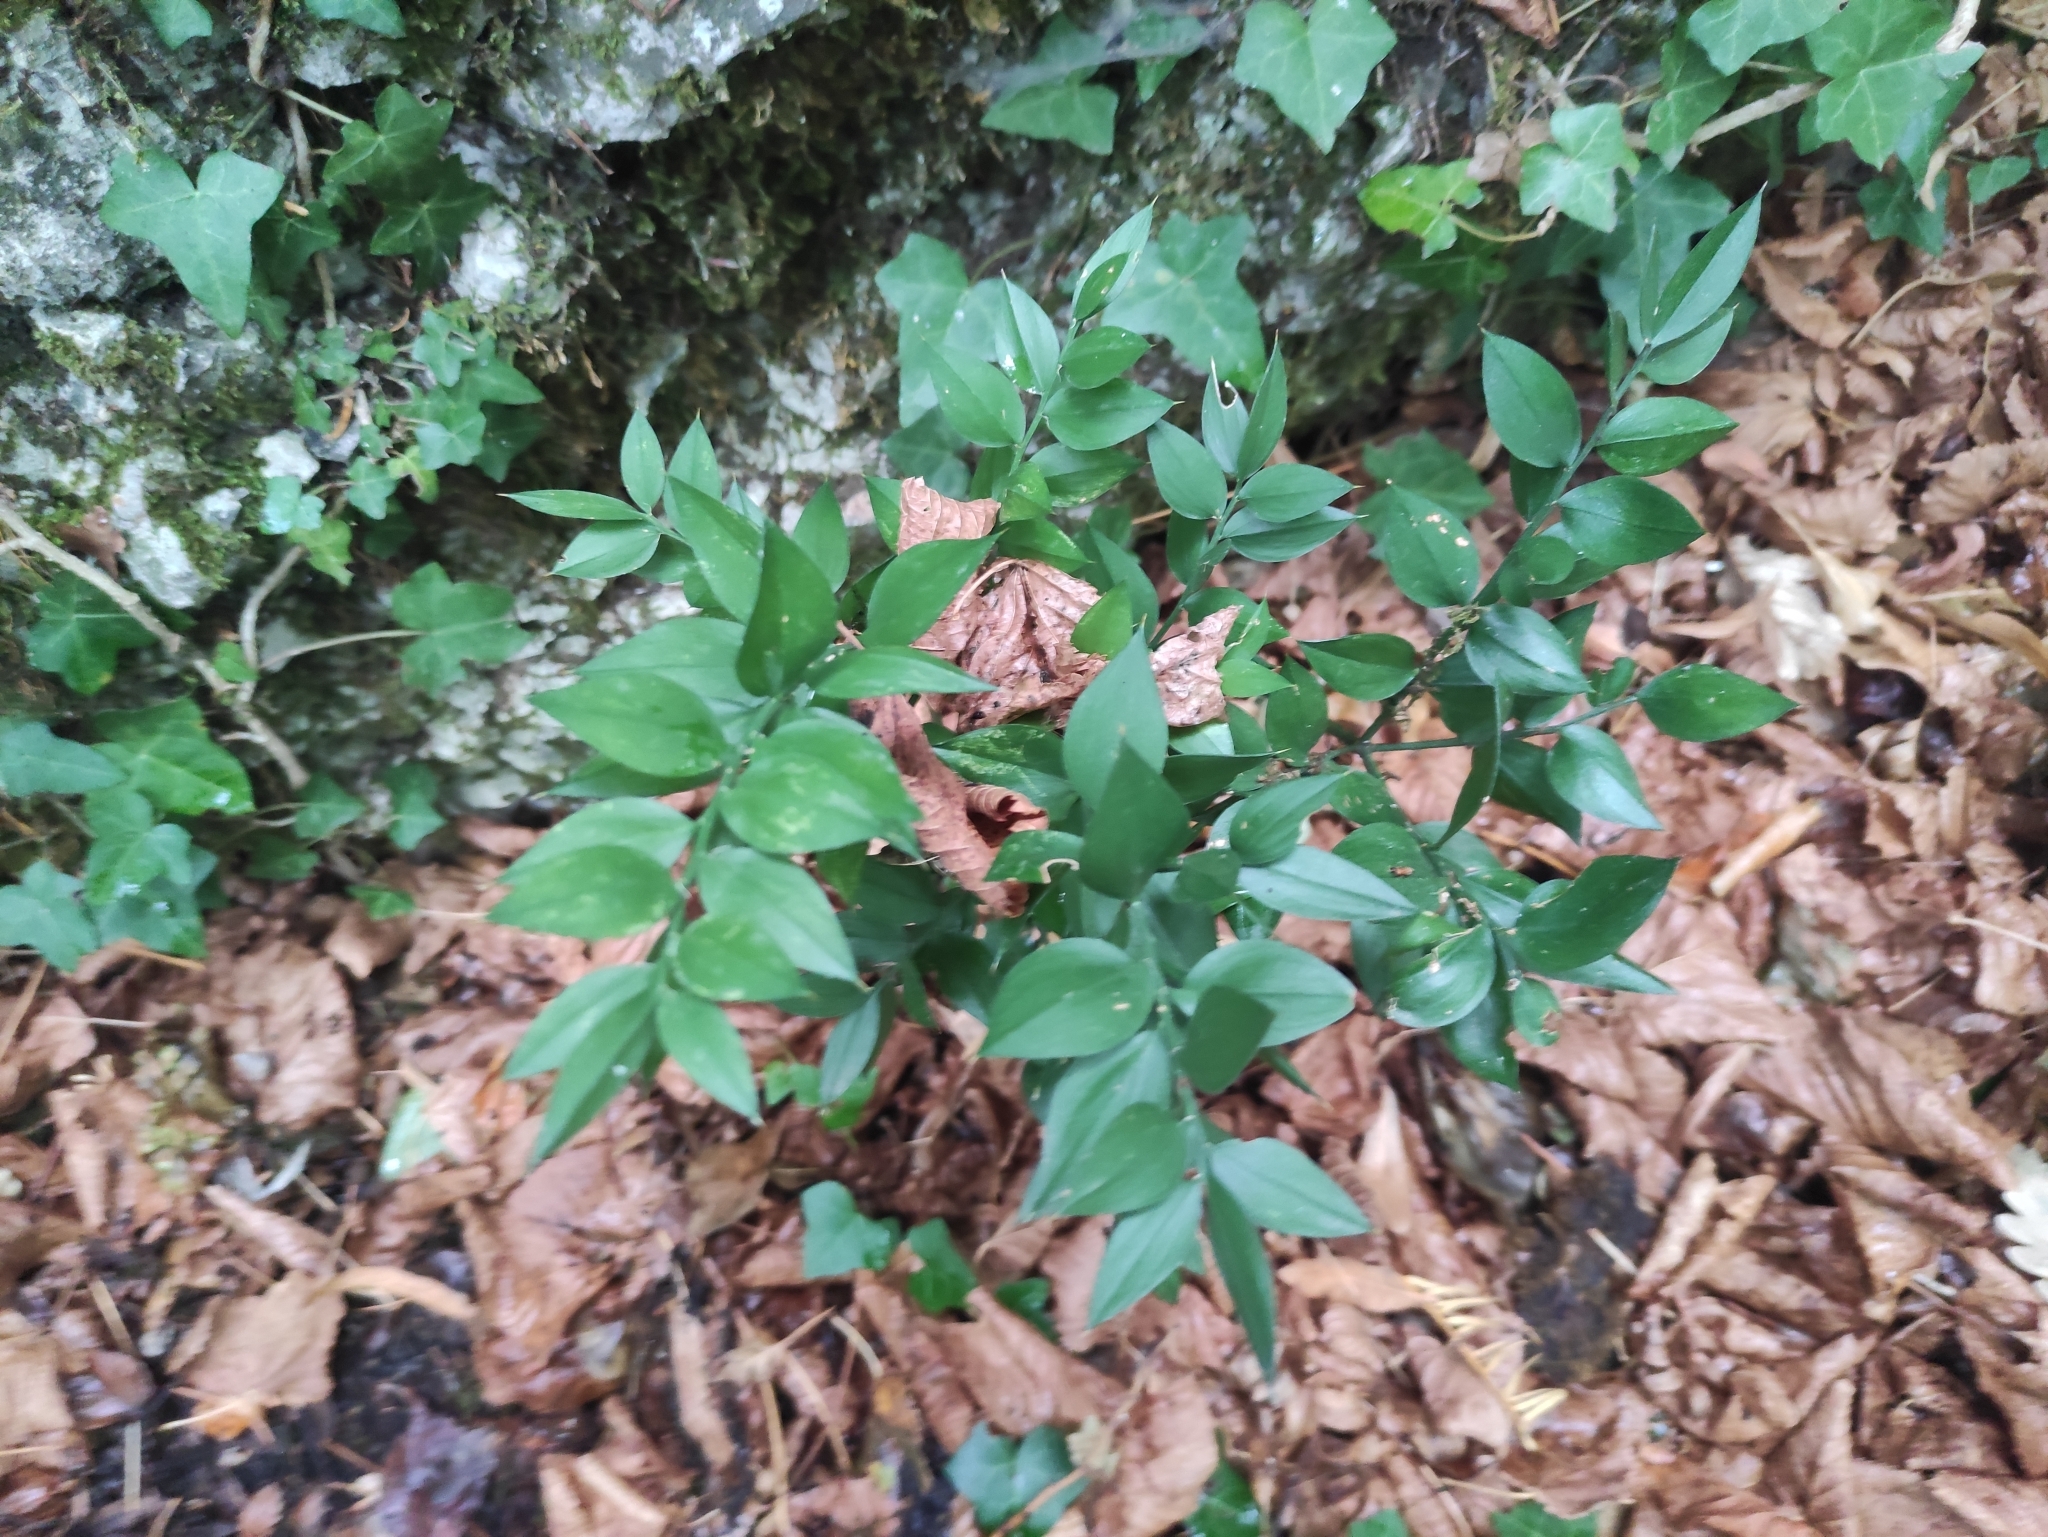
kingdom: Plantae
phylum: Tracheophyta
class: Liliopsida
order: Asparagales
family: Asparagaceae
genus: Ruscus
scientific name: Ruscus aculeatus
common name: Butcher's-broom
